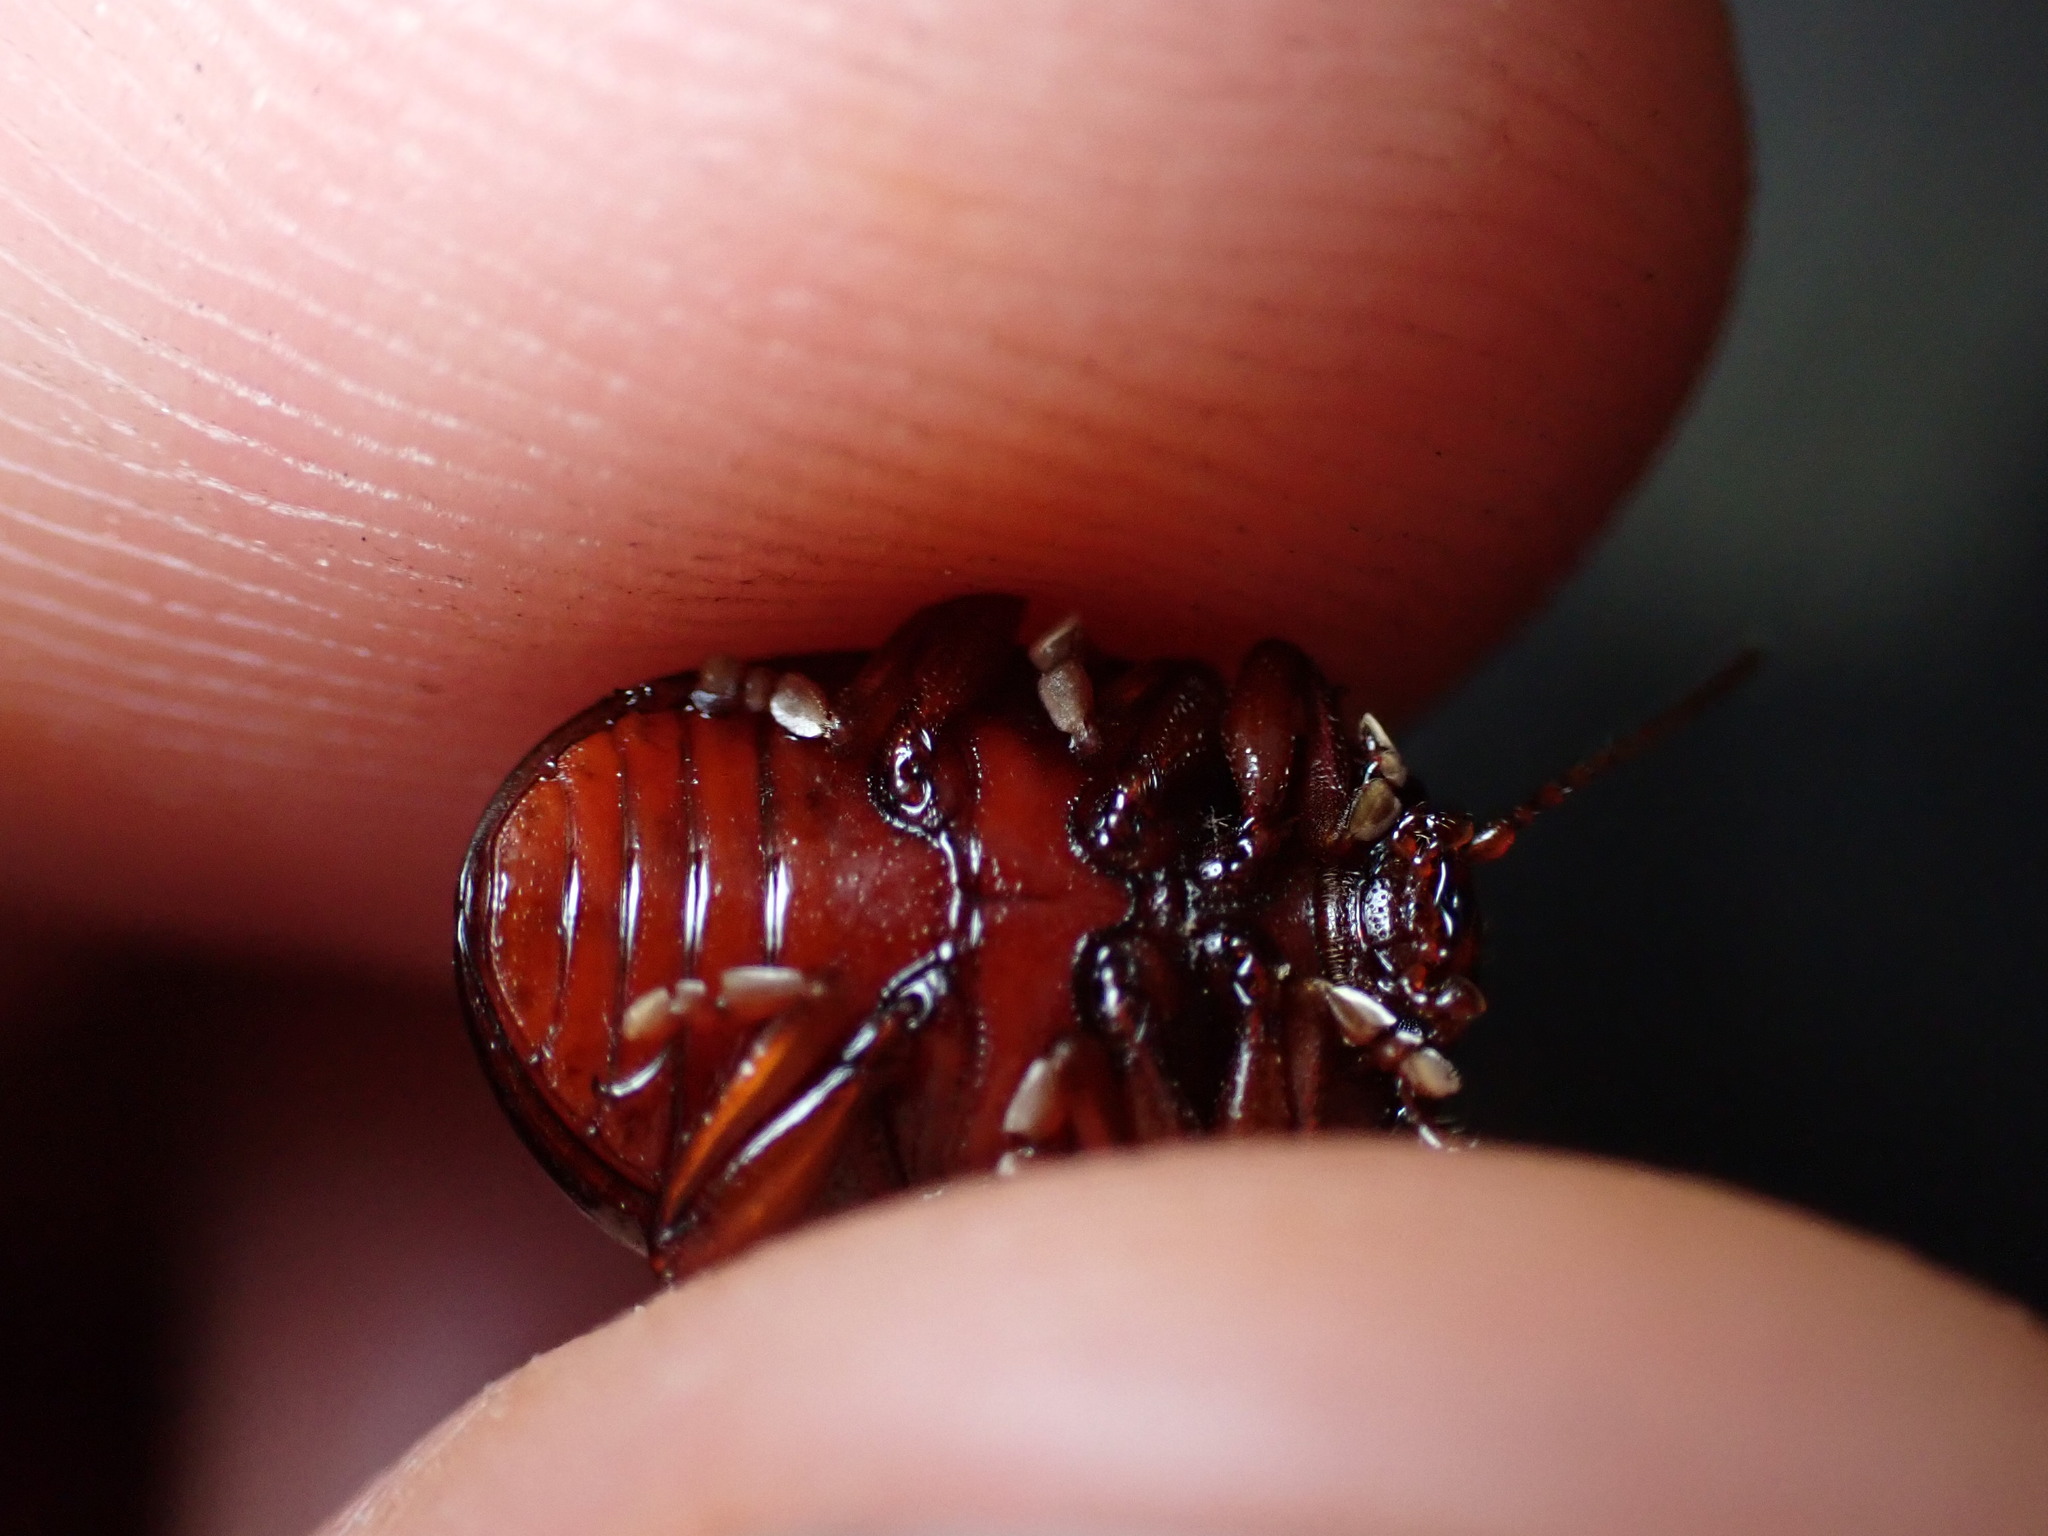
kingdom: Animalia
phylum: Arthropoda
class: Insecta
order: Coleoptera
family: Chrysomelidae
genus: Chrysolina
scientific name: Chrysolina bankii
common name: Leaf beetle
